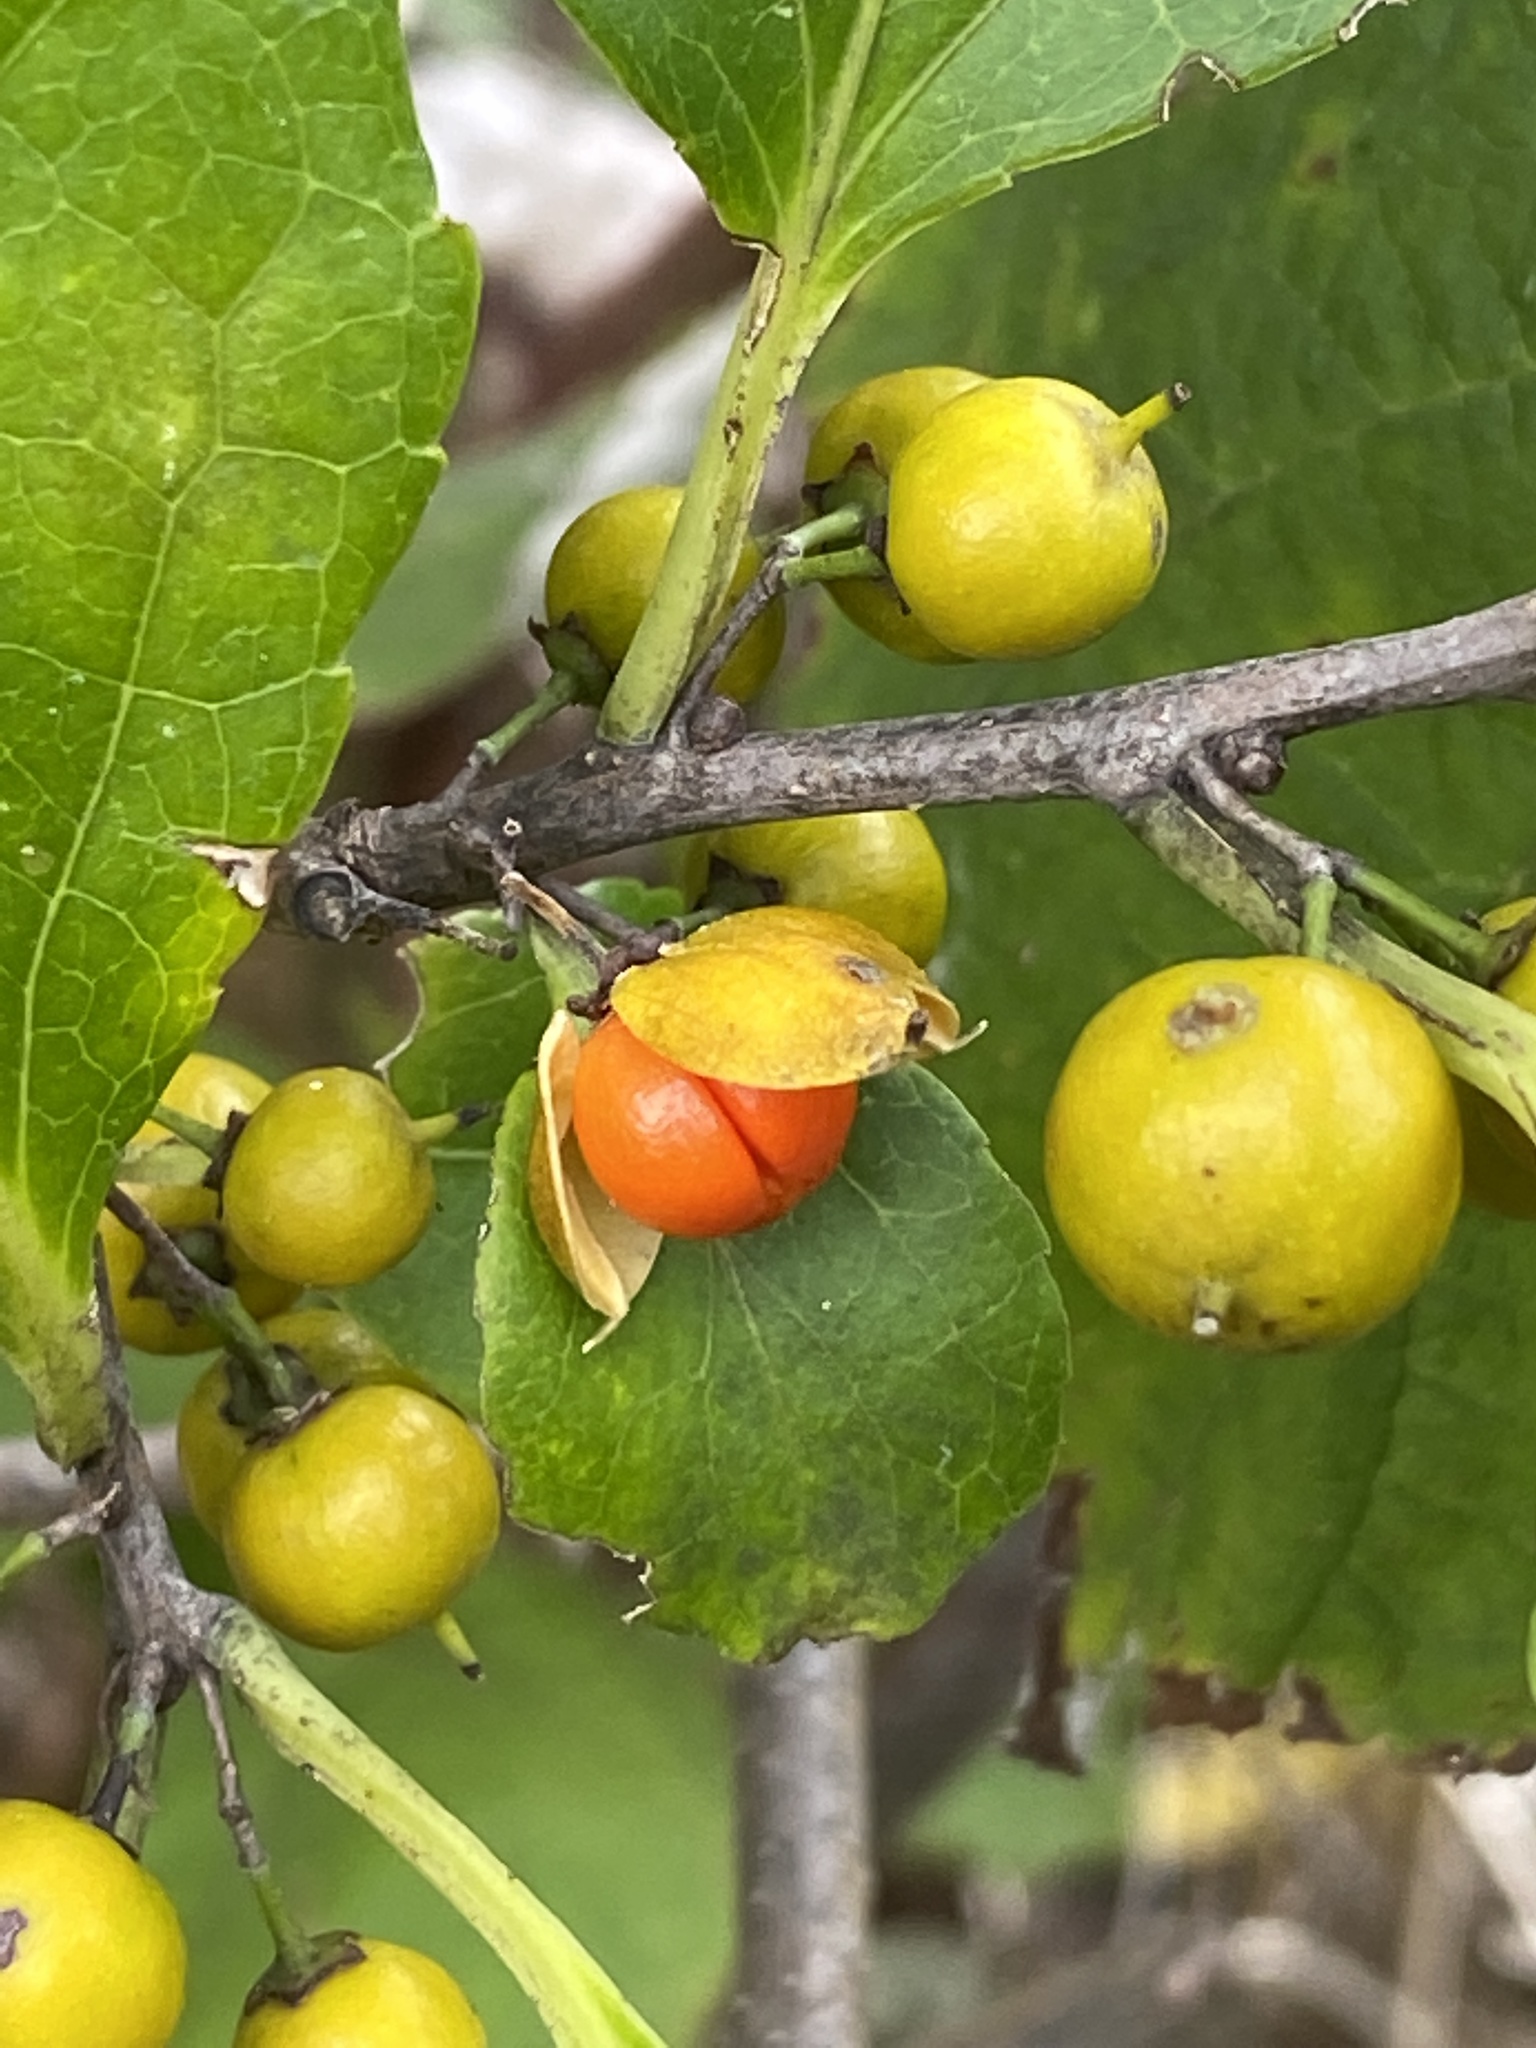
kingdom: Plantae
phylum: Tracheophyta
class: Magnoliopsida
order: Celastrales
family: Celastraceae
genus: Celastrus
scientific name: Celastrus orbiculatus
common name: Oriental bittersweet
